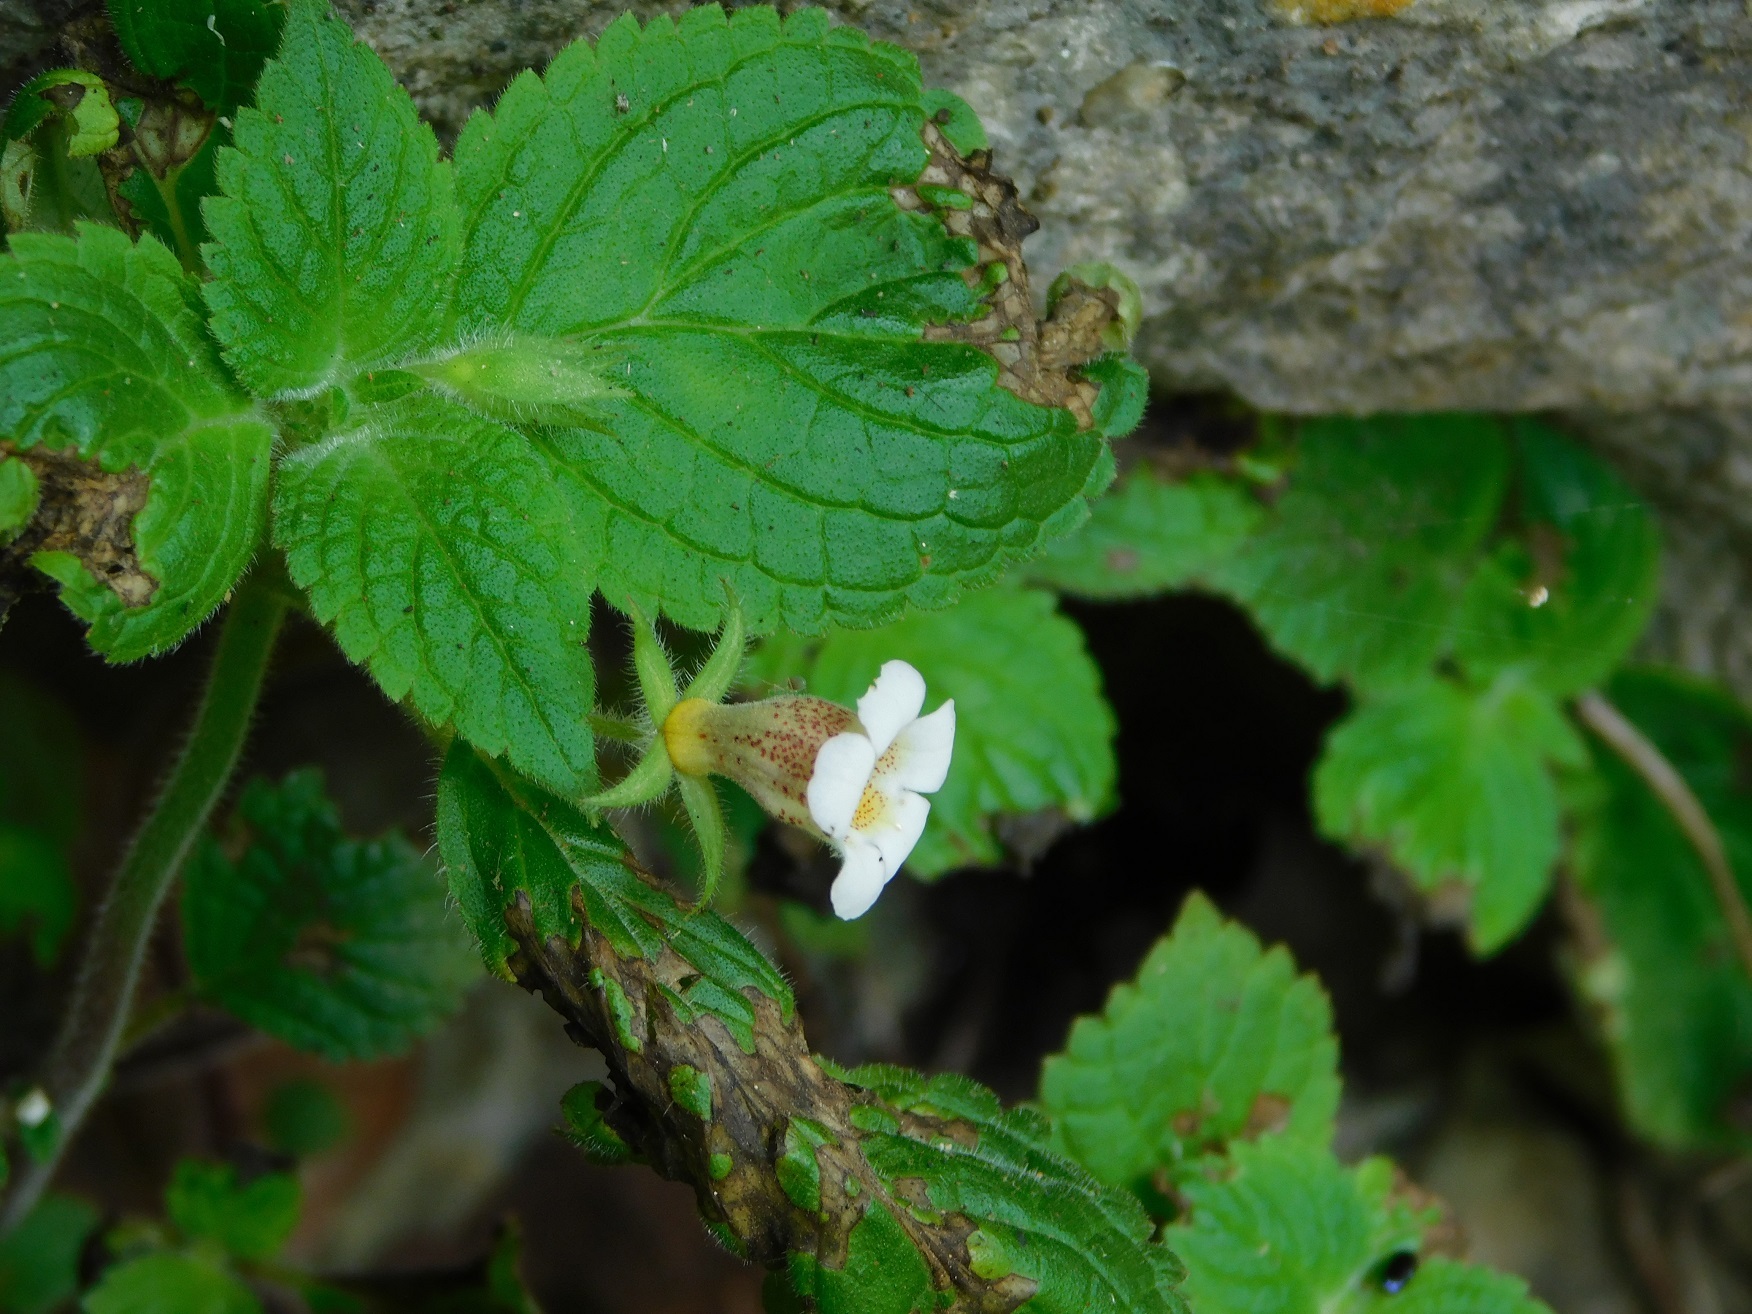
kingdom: Plantae
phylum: Tracheophyta
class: Magnoliopsida
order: Lamiales
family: Gesneriaceae
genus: Achimenes
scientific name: Achimenes misera
